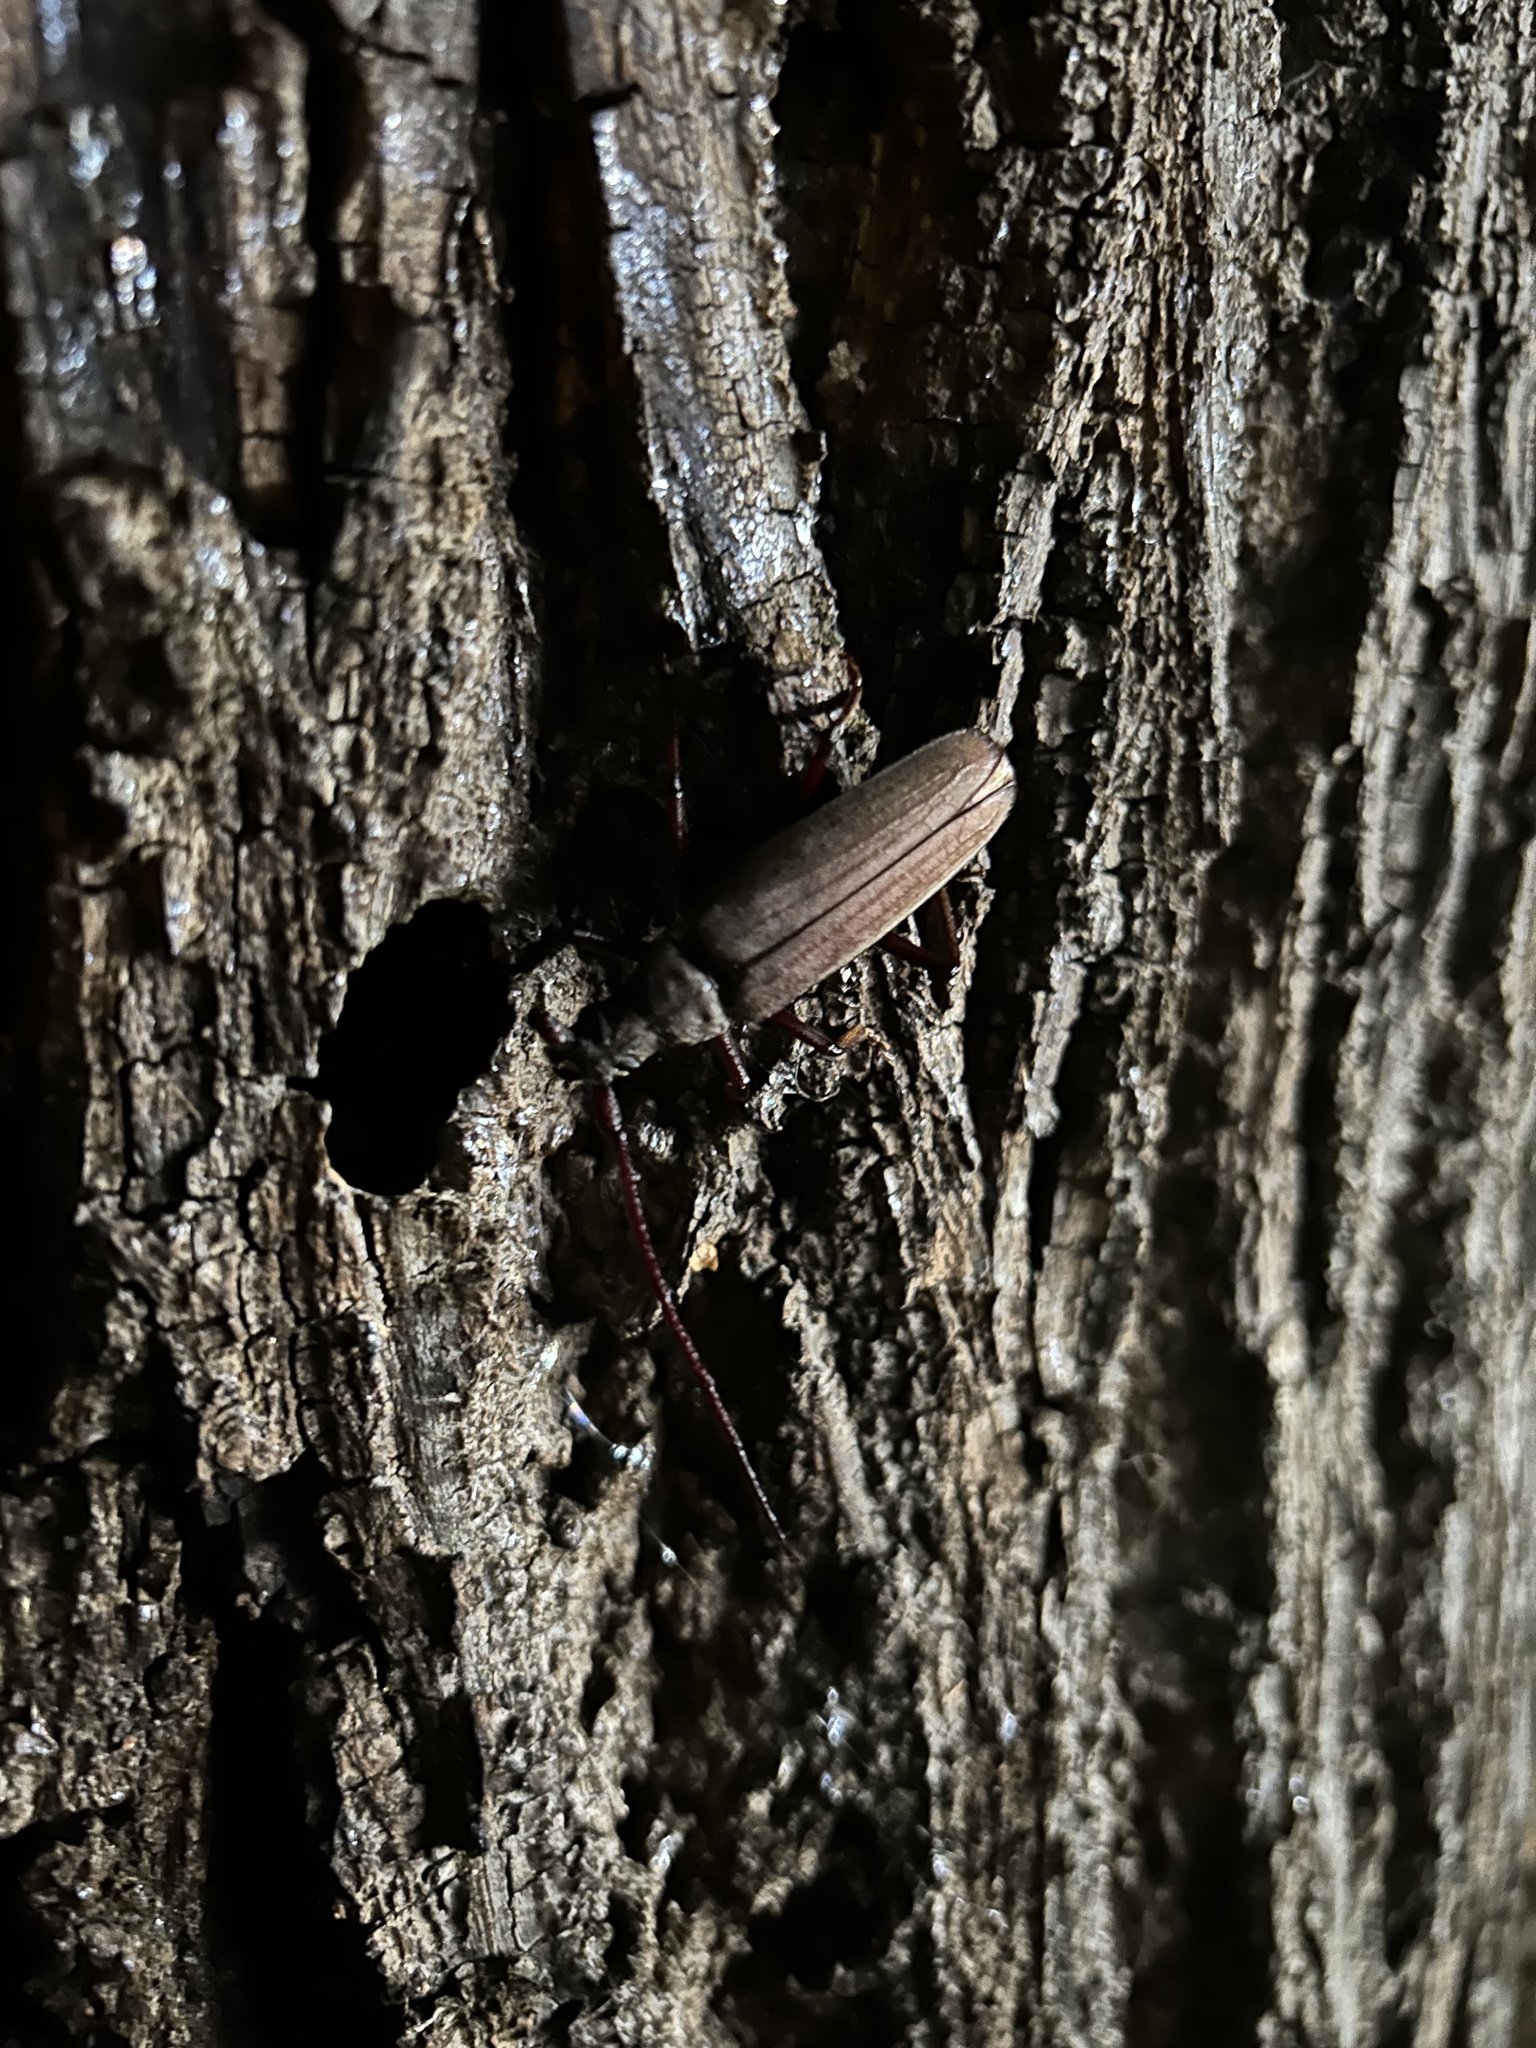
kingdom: Animalia
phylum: Arthropoda
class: Insecta
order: Coleoptera
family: Cerambycidae
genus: Aegosoma
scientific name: Aegosoma scabricorne
